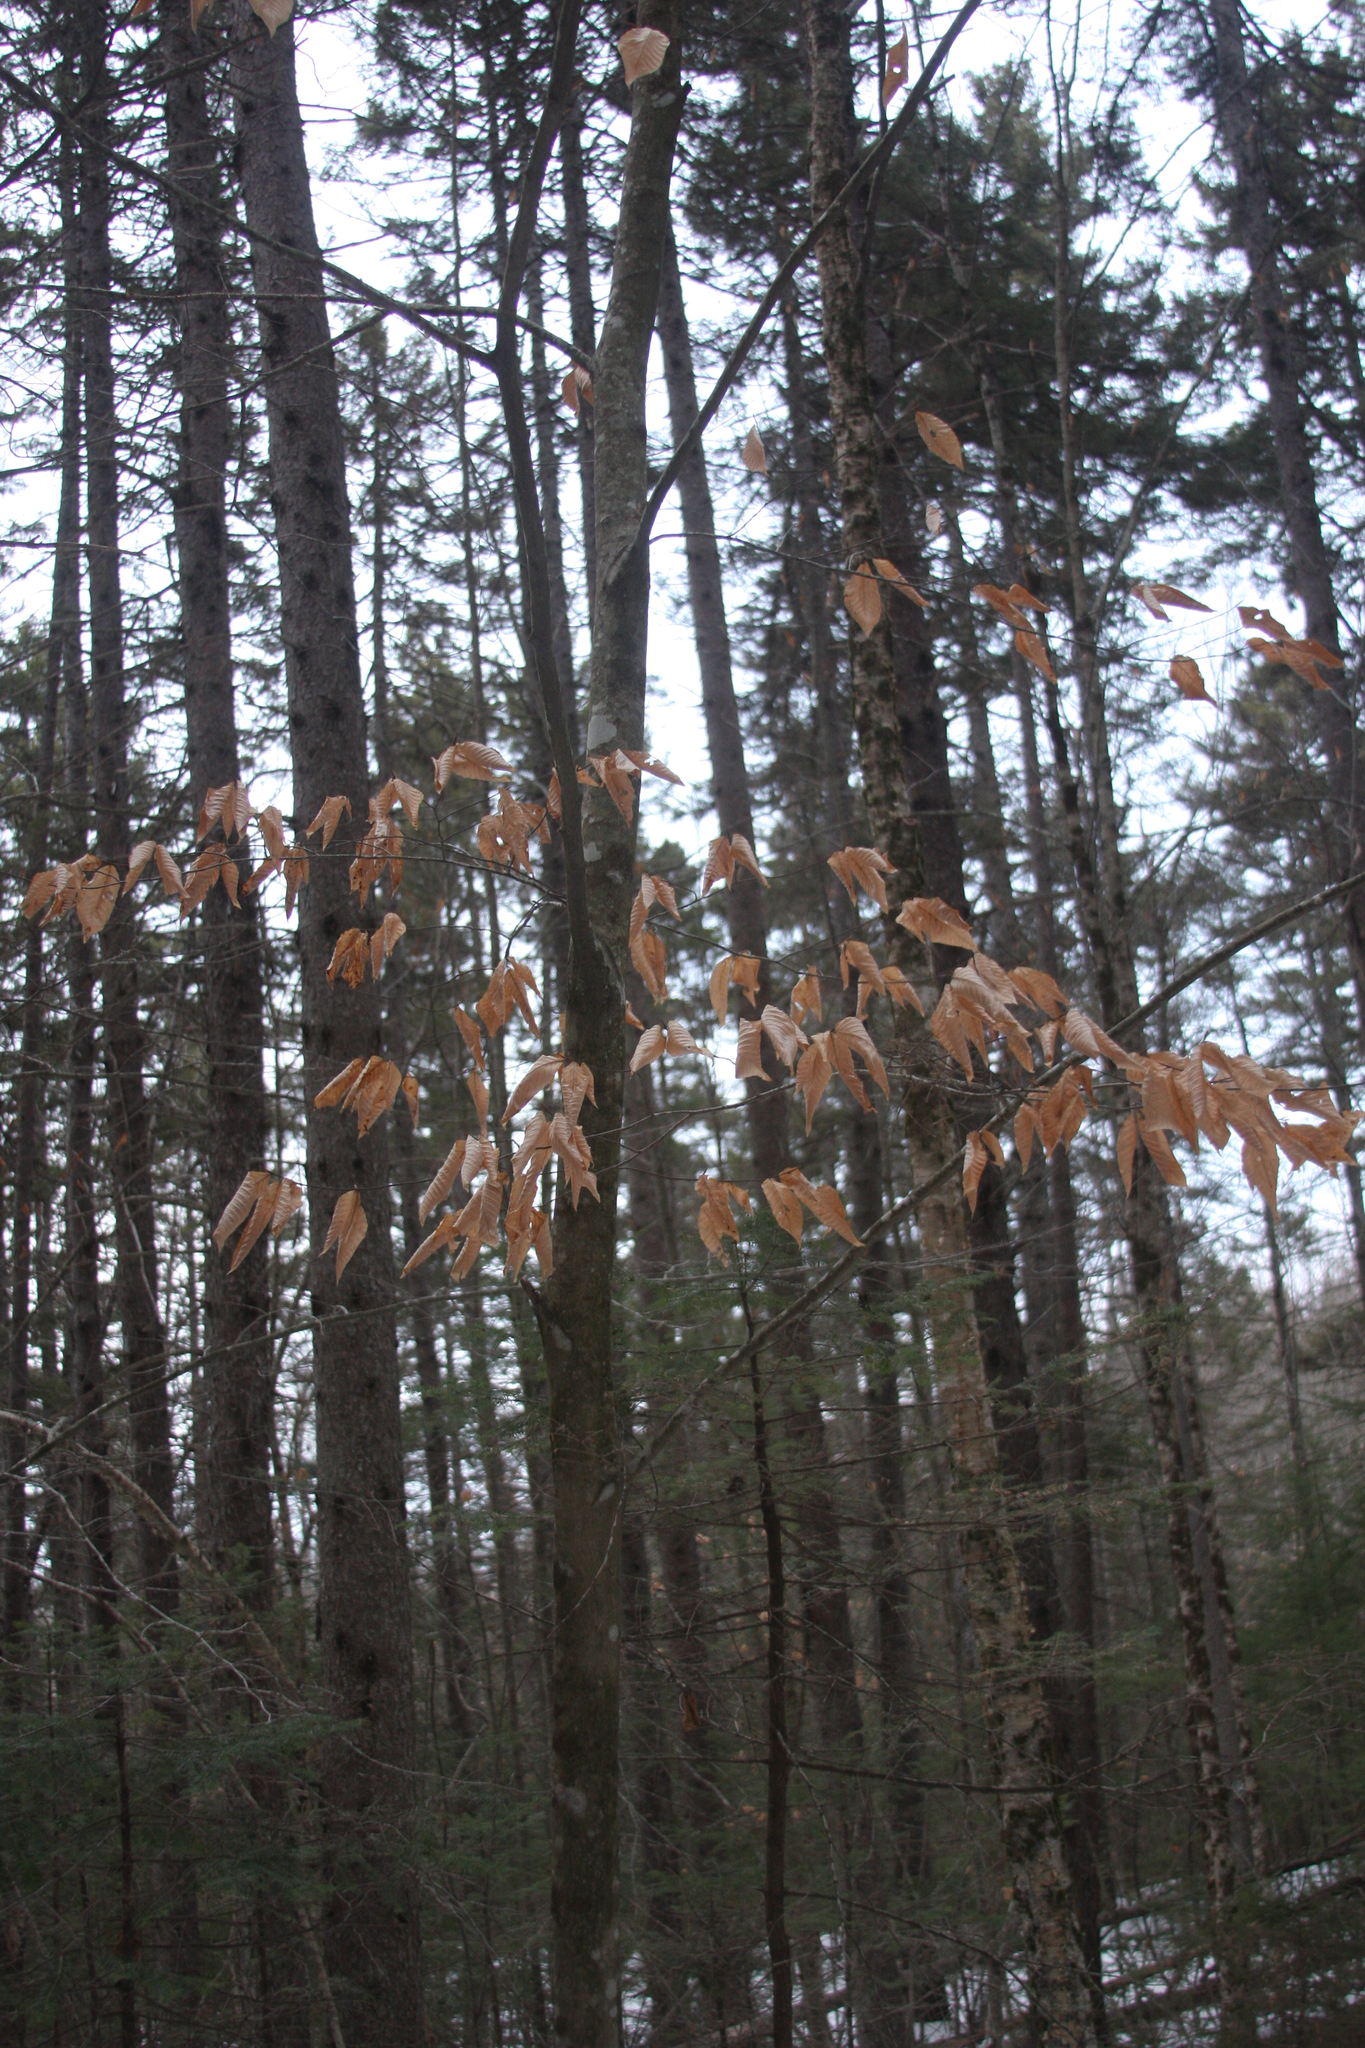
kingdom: Plantae
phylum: Tracheophyta
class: Magnoliopsida
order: Fagales
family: Fagaceae
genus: Fagus
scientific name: Fagus grandifolia
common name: American beech
